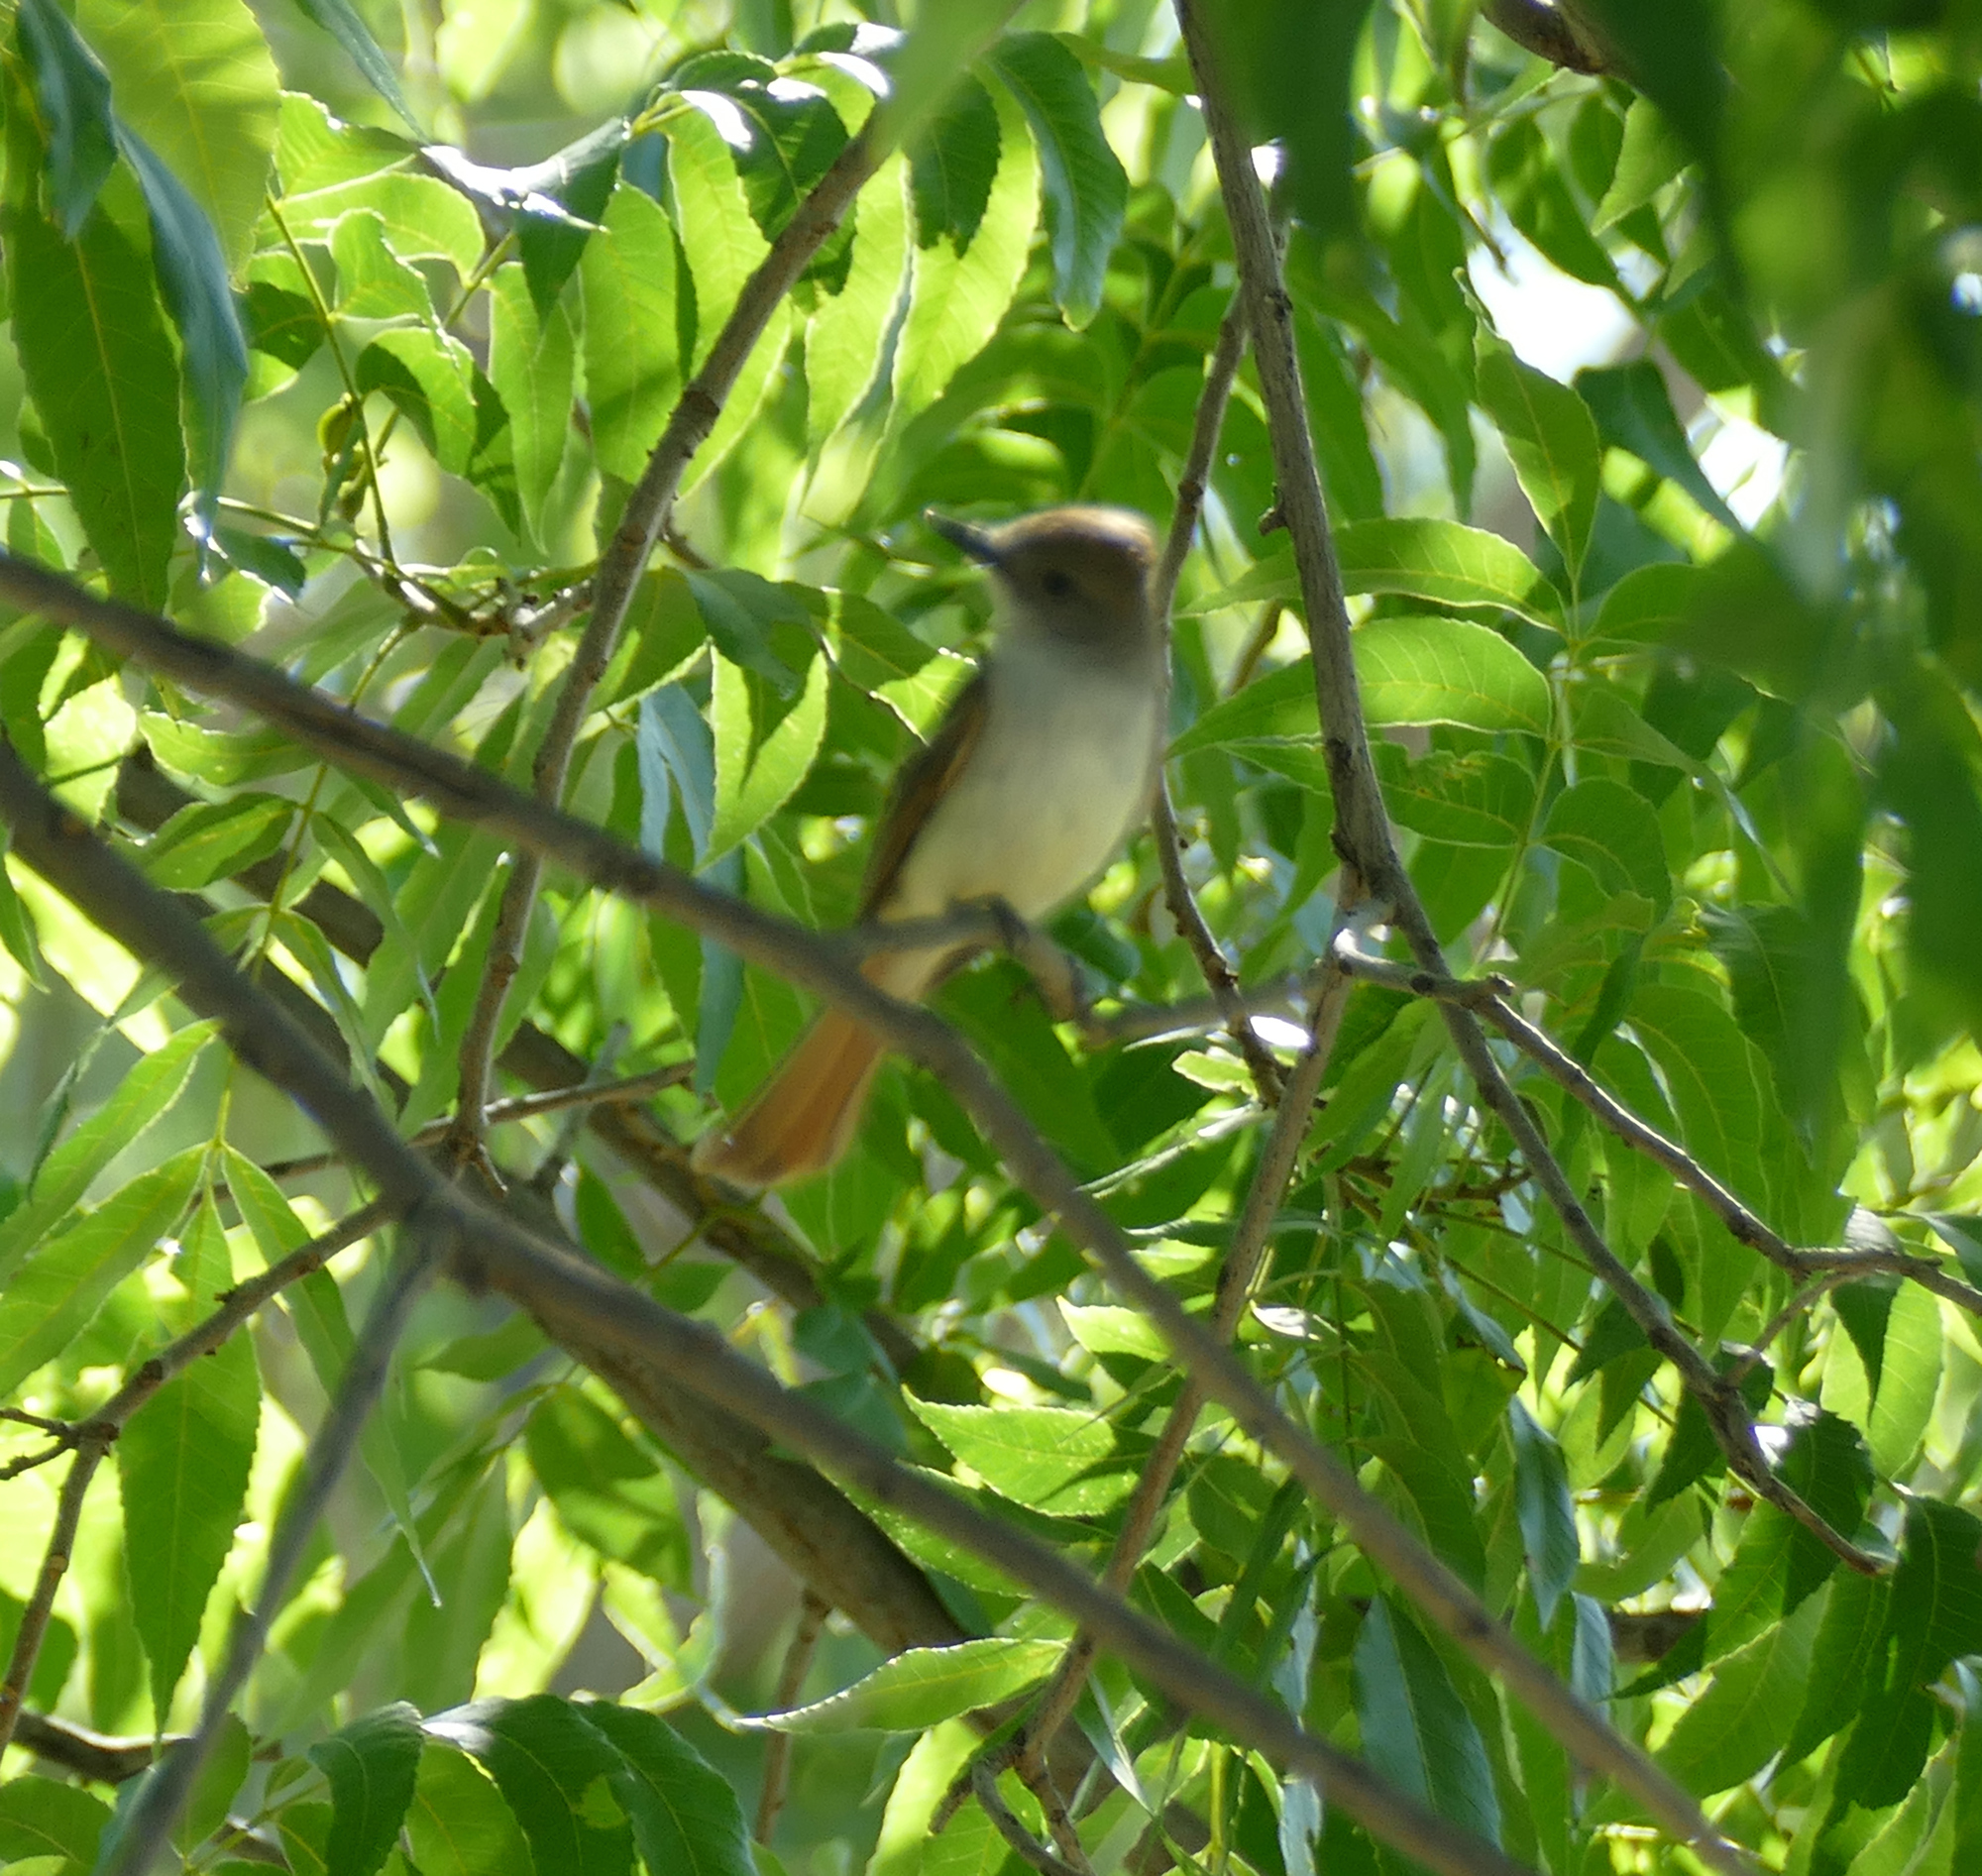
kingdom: Animalia
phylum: Chordata
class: Aves
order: Passeriformes
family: Tyrannidae
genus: Myiarchus
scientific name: Myiarchus cinerascens
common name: Ash-throated flycatcher
